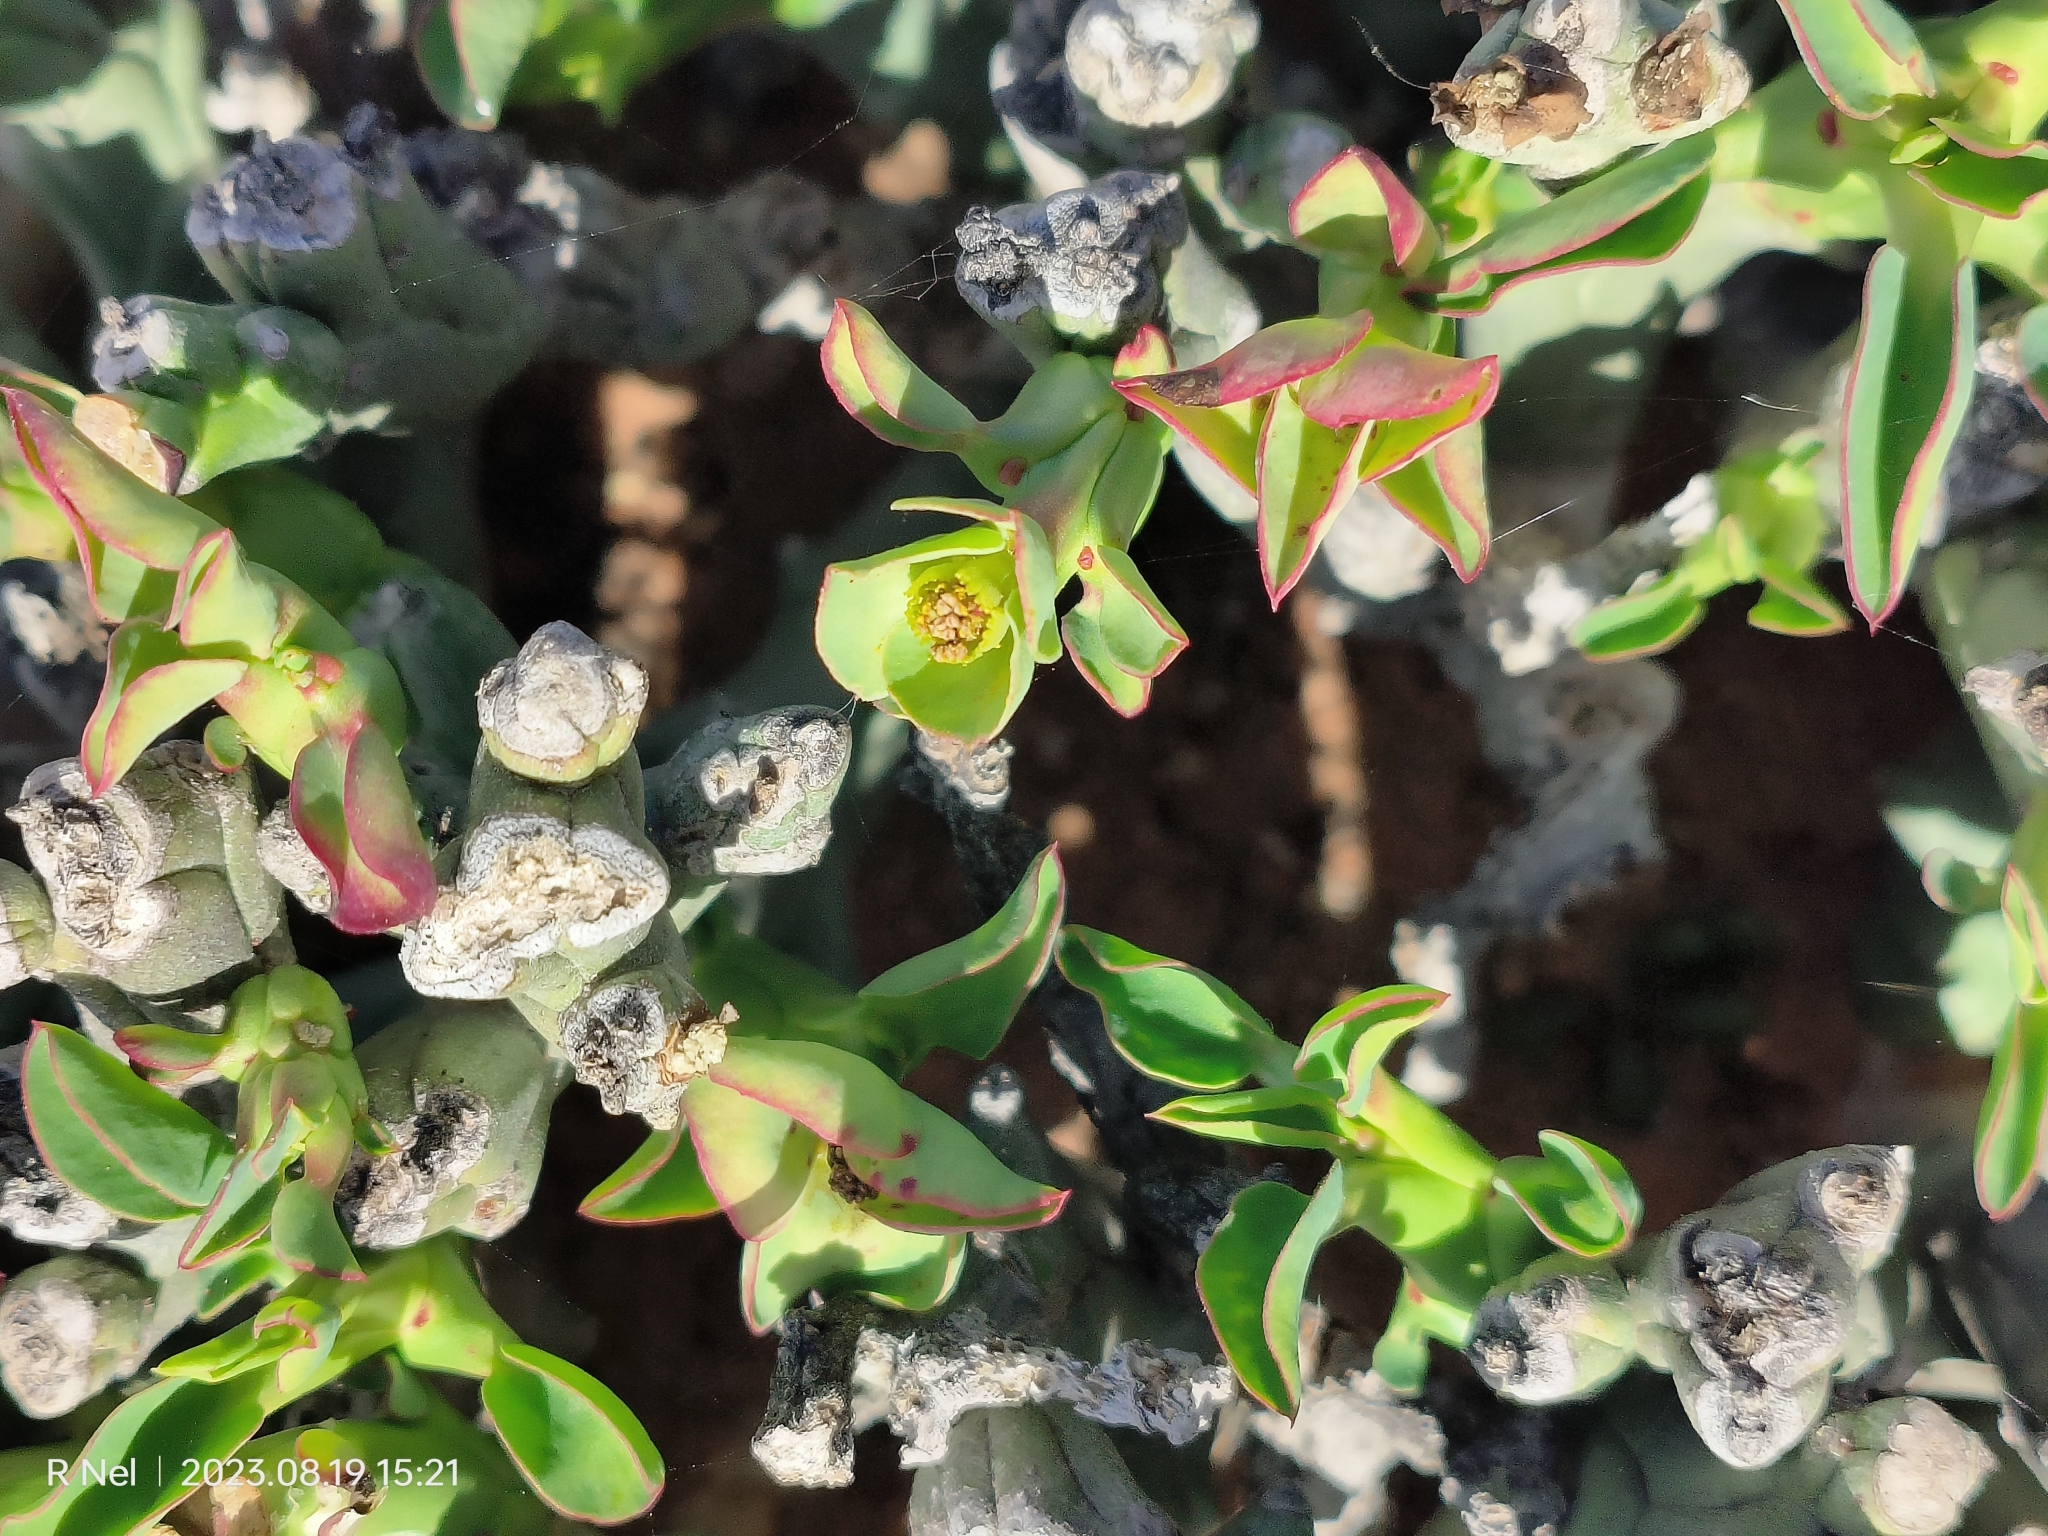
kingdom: Plantae
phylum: Tracheophyta
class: Magnoliopsida
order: Malpighiales
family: Euphorbiaceae
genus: Euphorbia
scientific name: Euphorbia hamata
